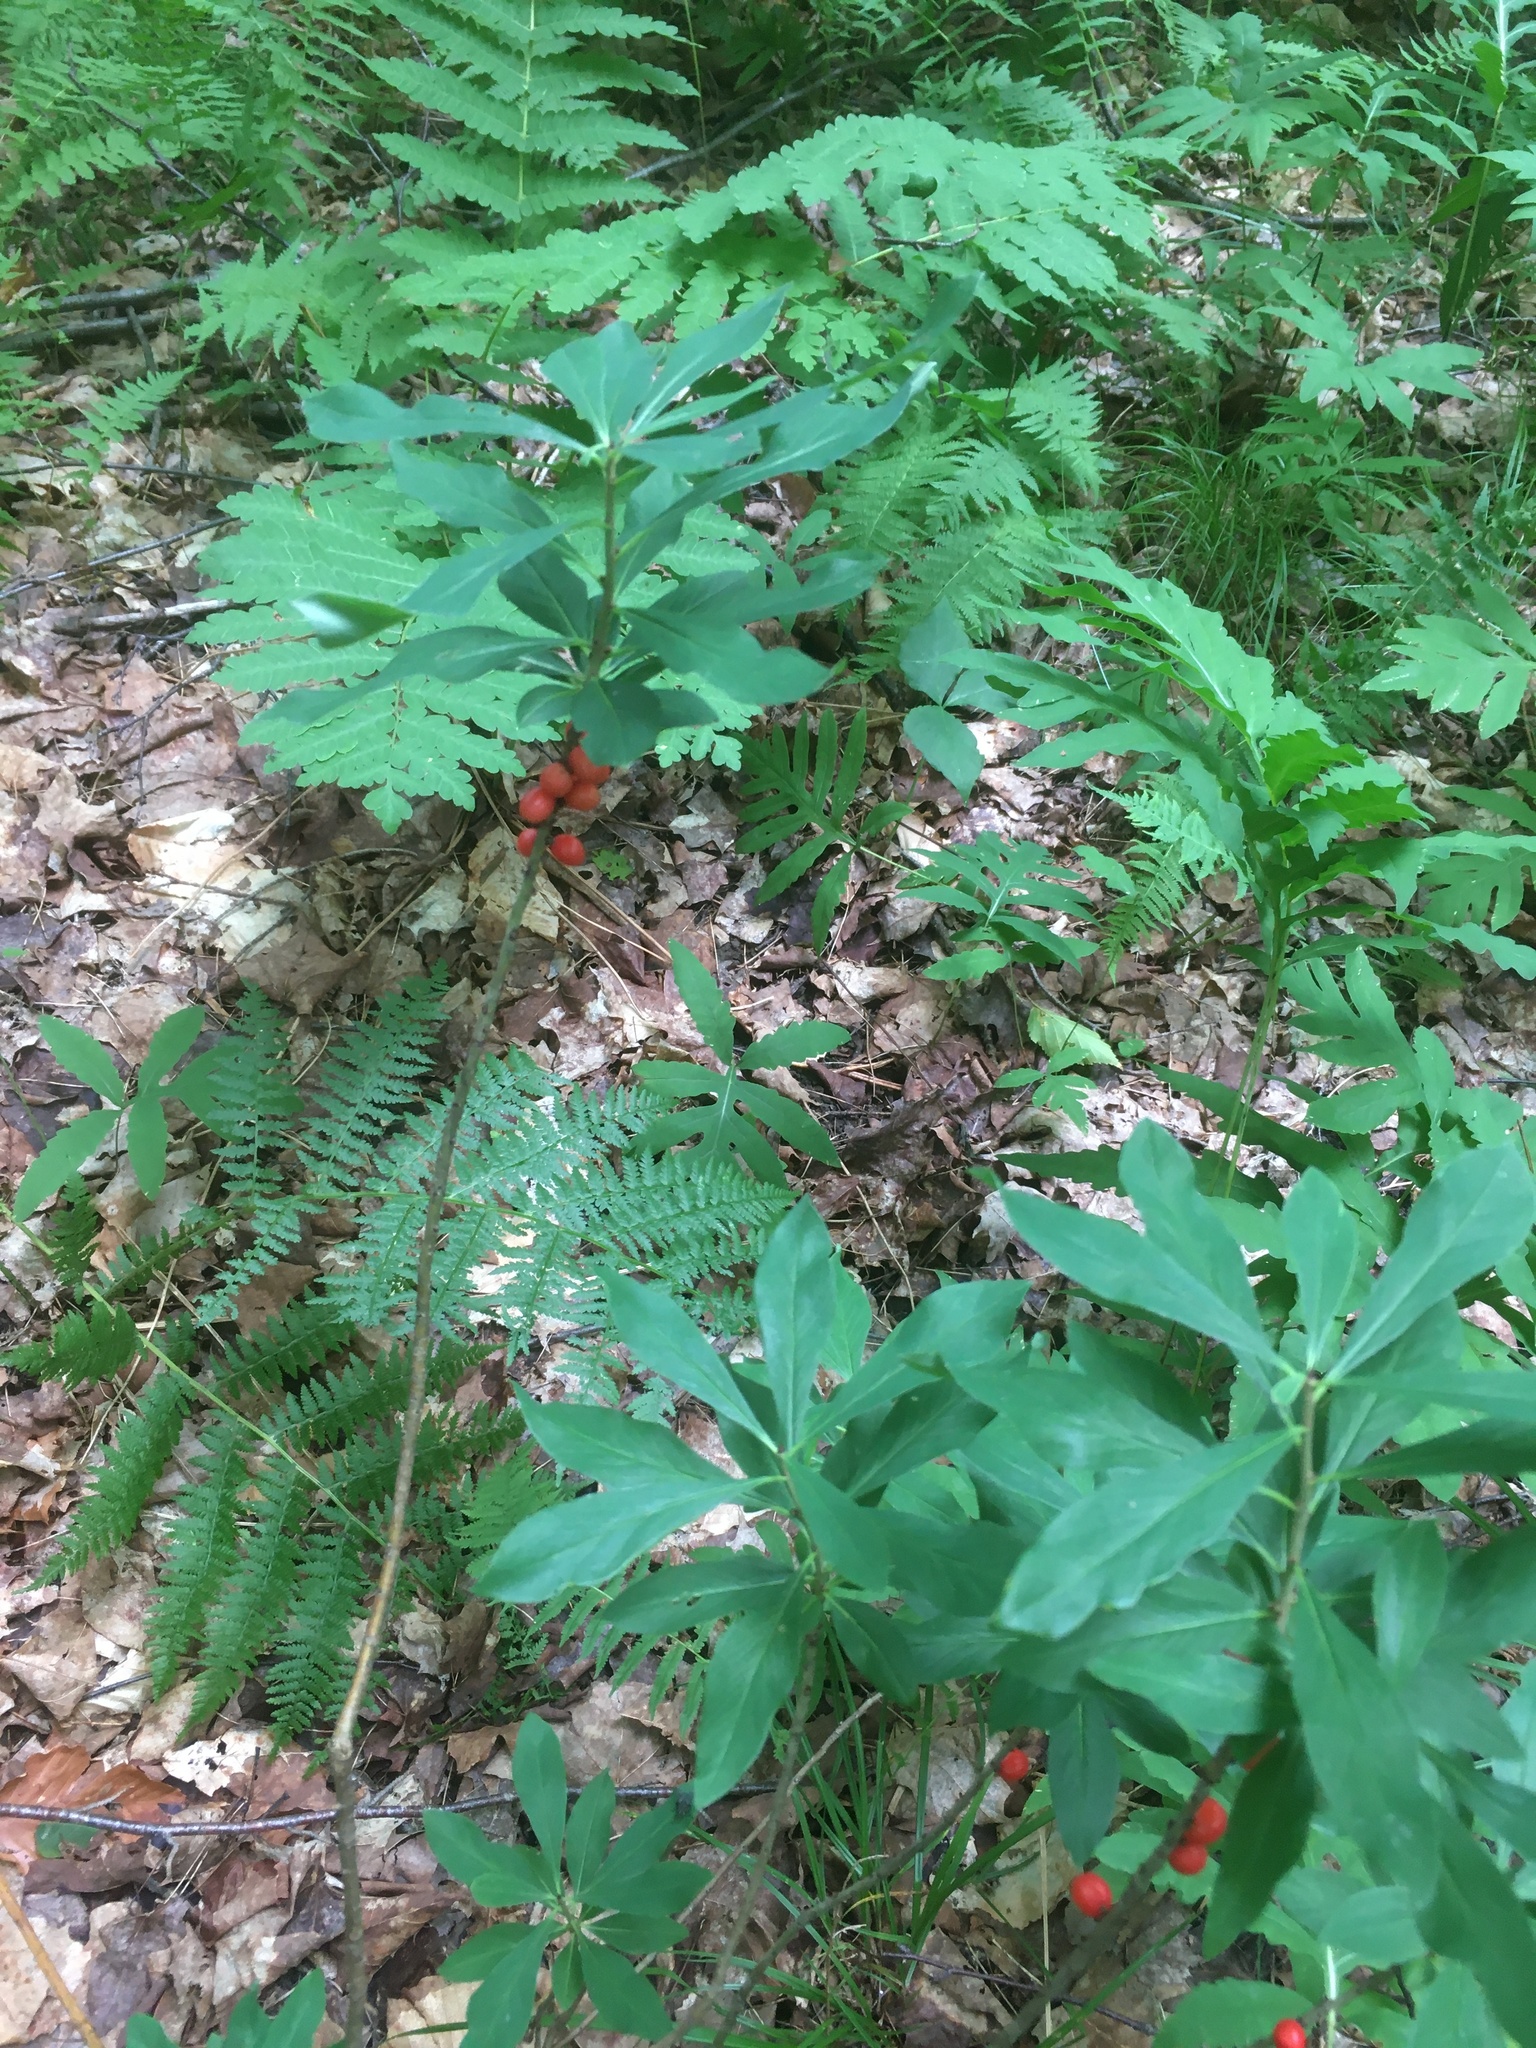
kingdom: Plantae
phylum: Tracheophyta
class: Magnoliopsida
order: Malvales
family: Thymelaeaceae
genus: Daphne
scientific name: Daphne mezereum
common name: Mezereon
